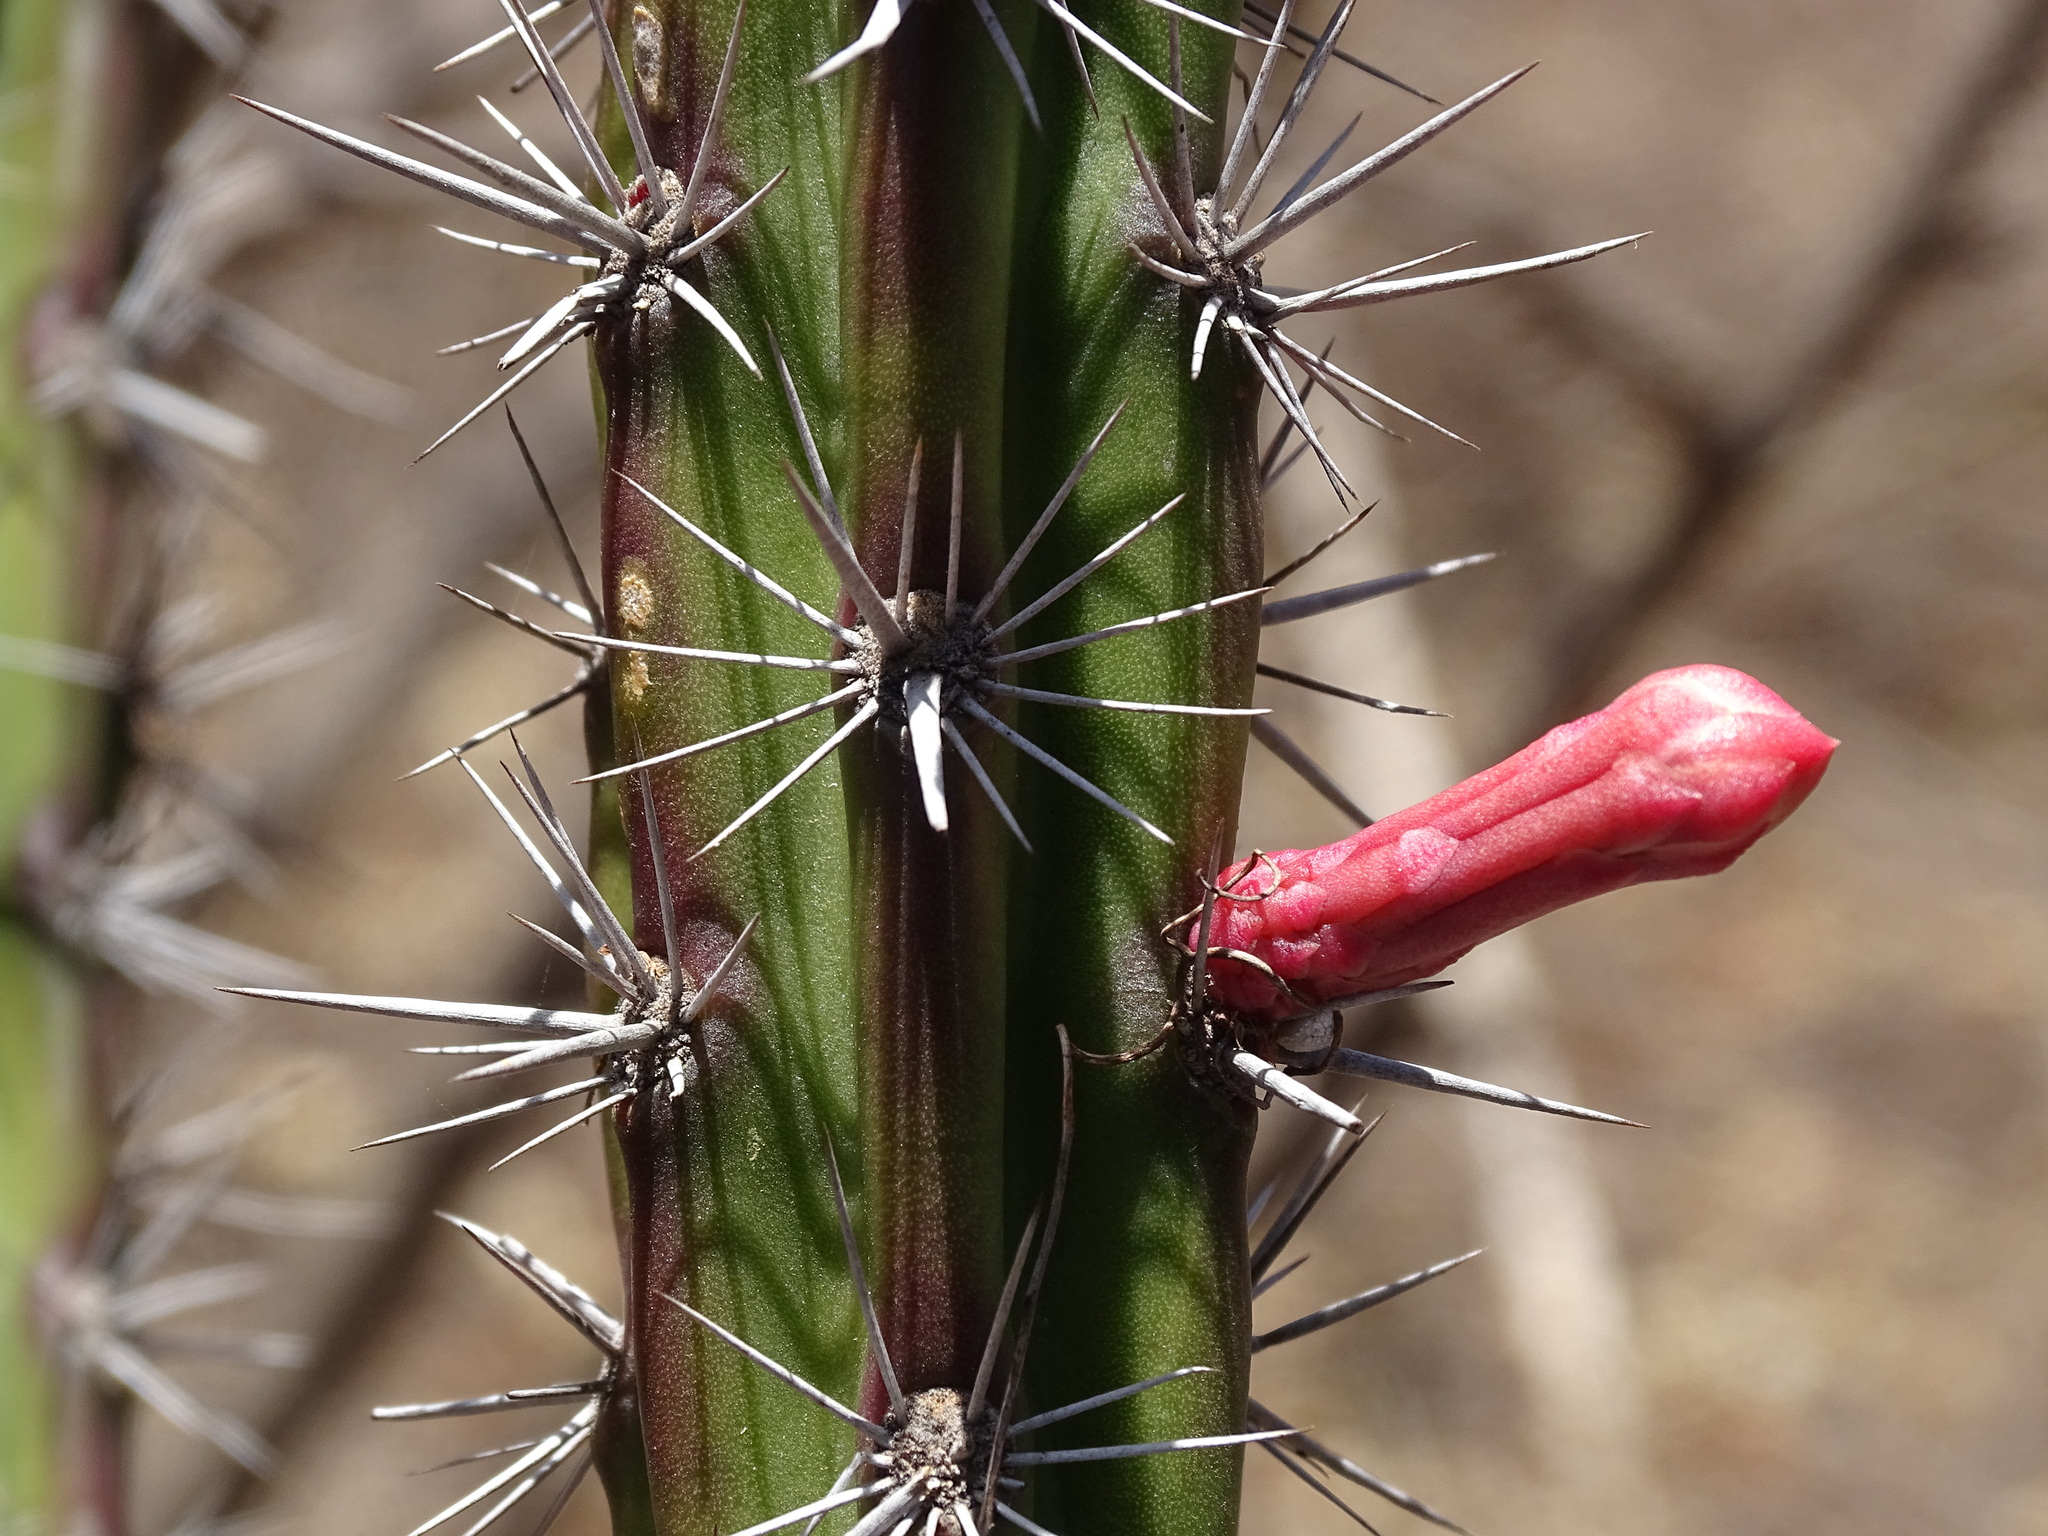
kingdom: Plantae
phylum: Tracheophyta
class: Magnoliopsida
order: Caryophyllales
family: Cactaceae
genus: Stenocereus
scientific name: Stenocereus alamosensis
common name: Octopus cactus
